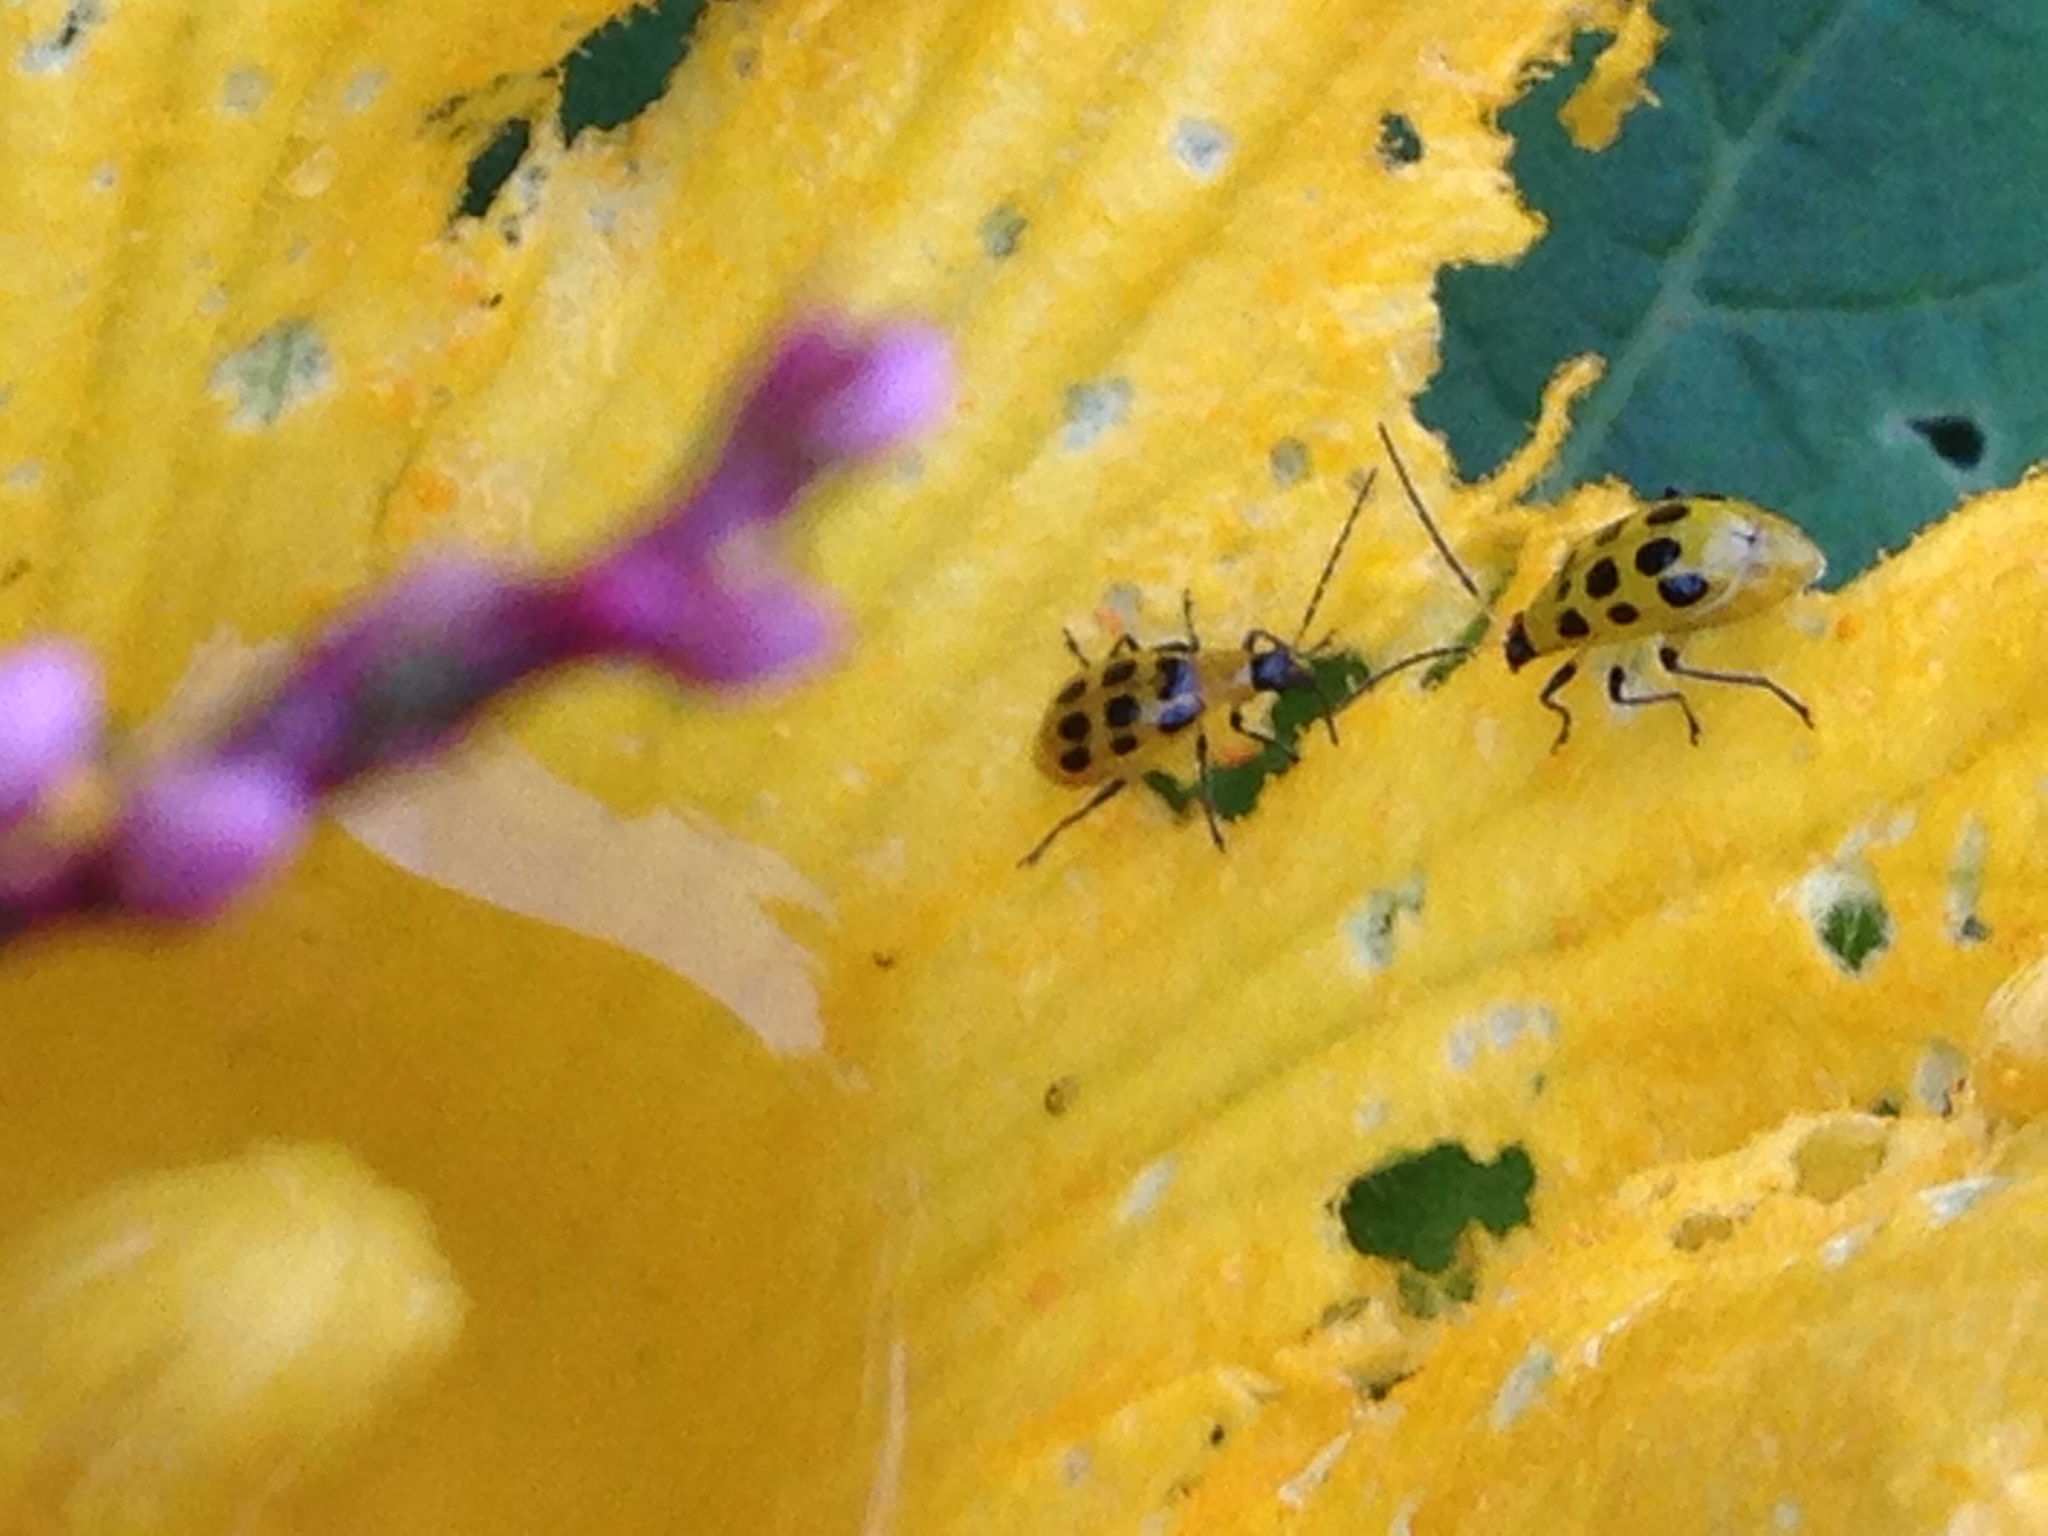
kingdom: Animalia
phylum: Arthropoda
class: Insecta
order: Coleoptera
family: Chrysomelidae
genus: Diabrotica
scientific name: Diabrotica undecimpunctata
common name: Spotted cucumber beetle
